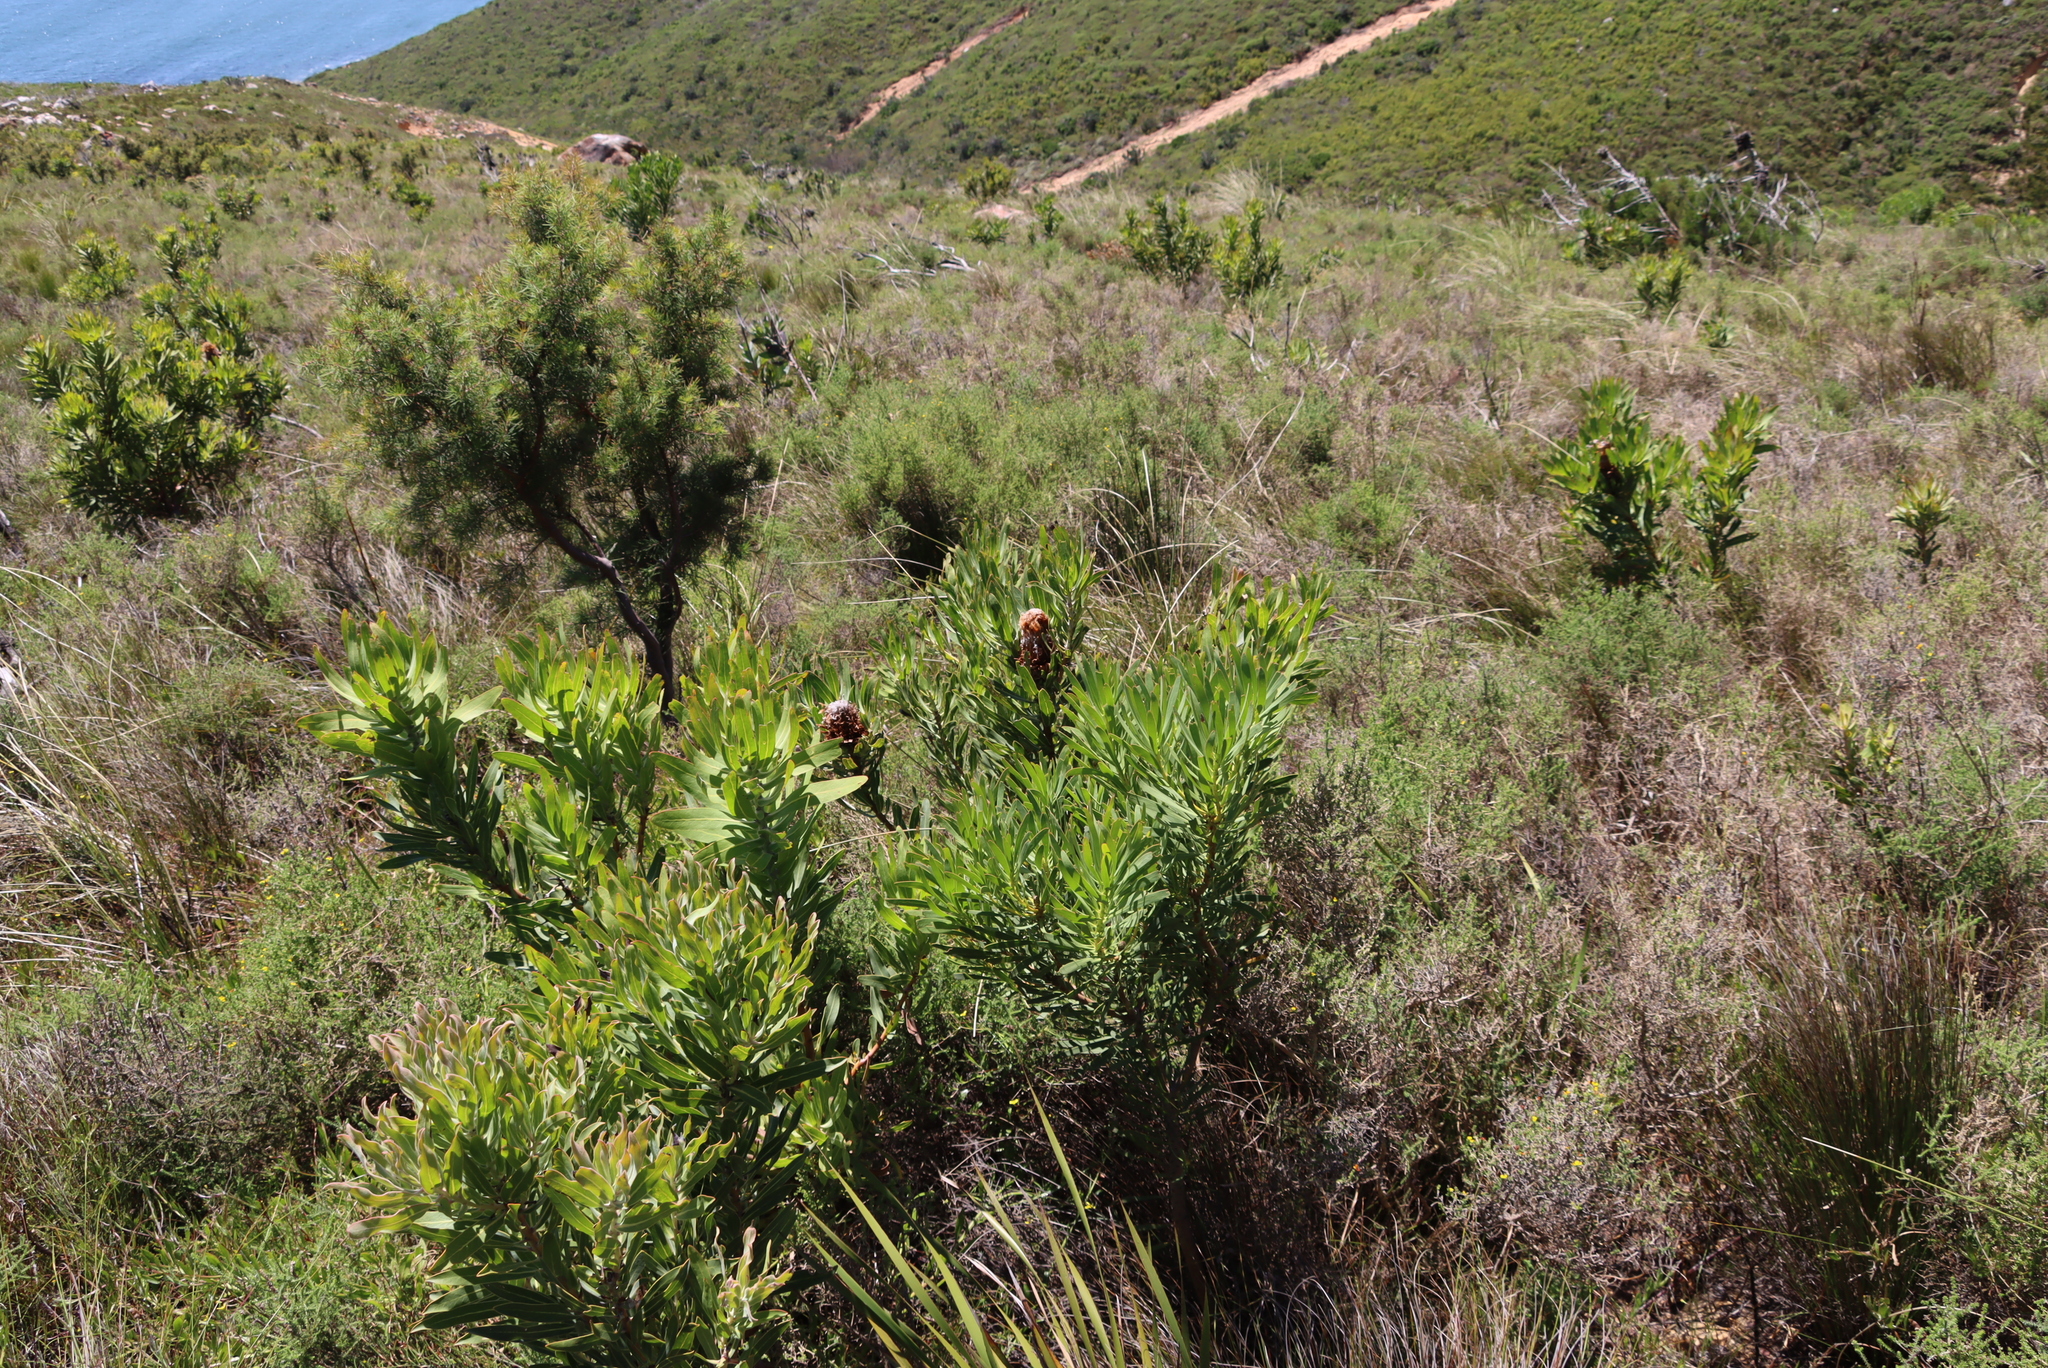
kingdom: Plantae
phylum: Tracheophyta
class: Magnoliopsida
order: Proteales
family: Proteaceae
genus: Protea
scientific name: Protea repens
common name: Sugarbush
